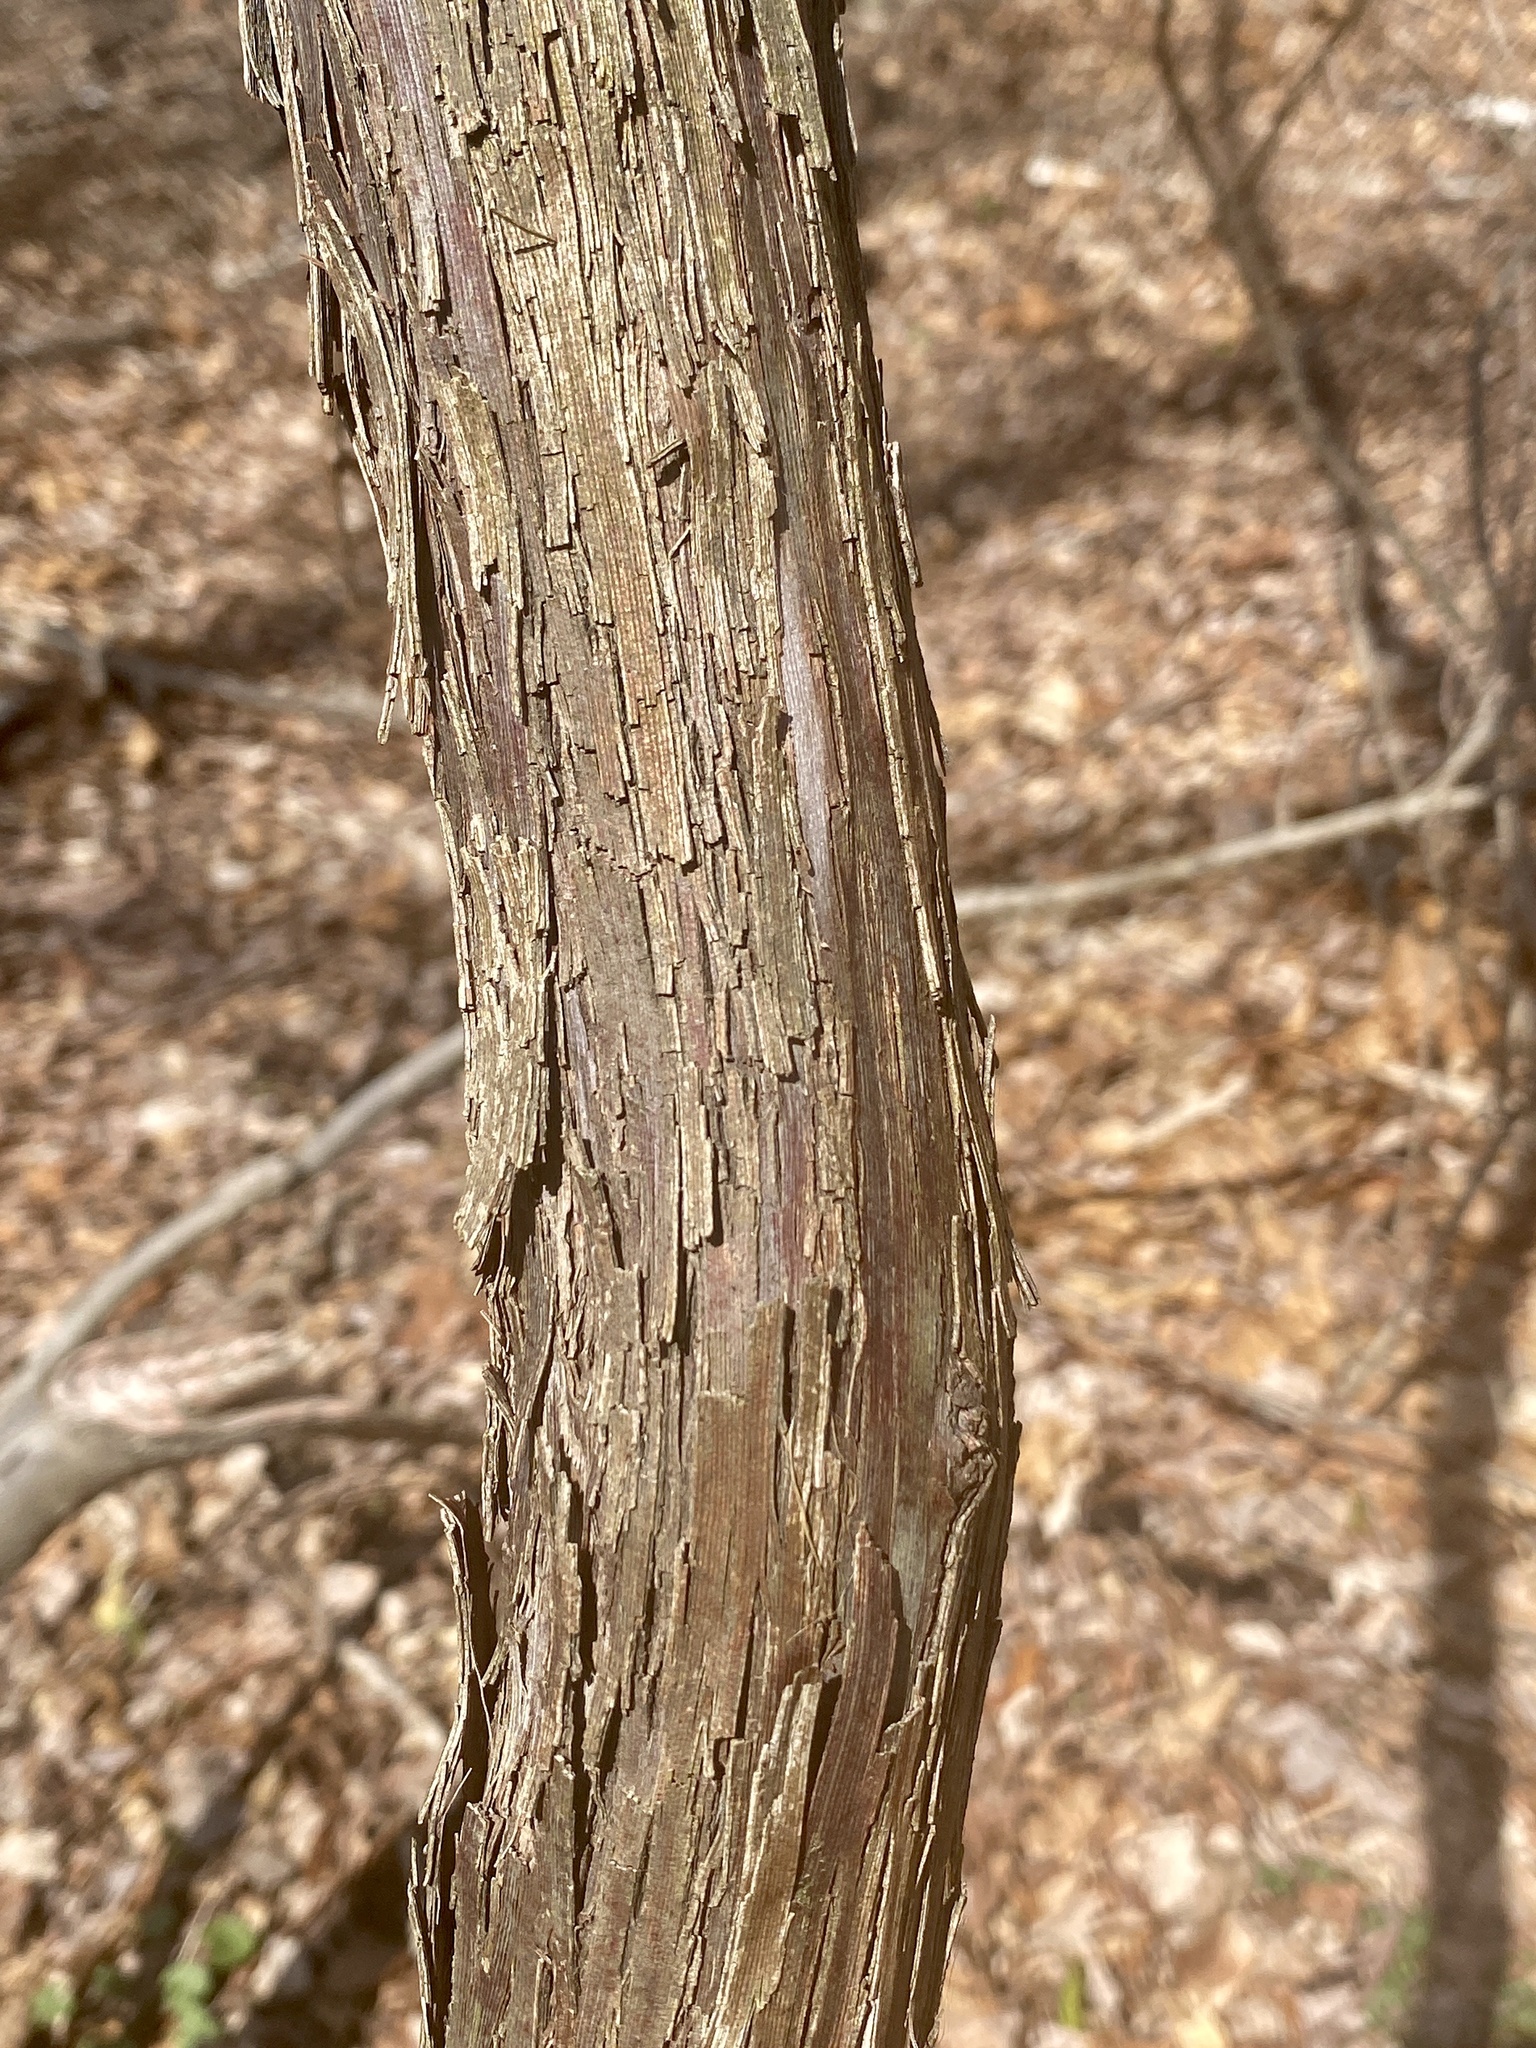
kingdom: Plantae
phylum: Tracheophyta
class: Magnoliopsida
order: Vitales
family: Vitaceae
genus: Vitis
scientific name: Vitis
